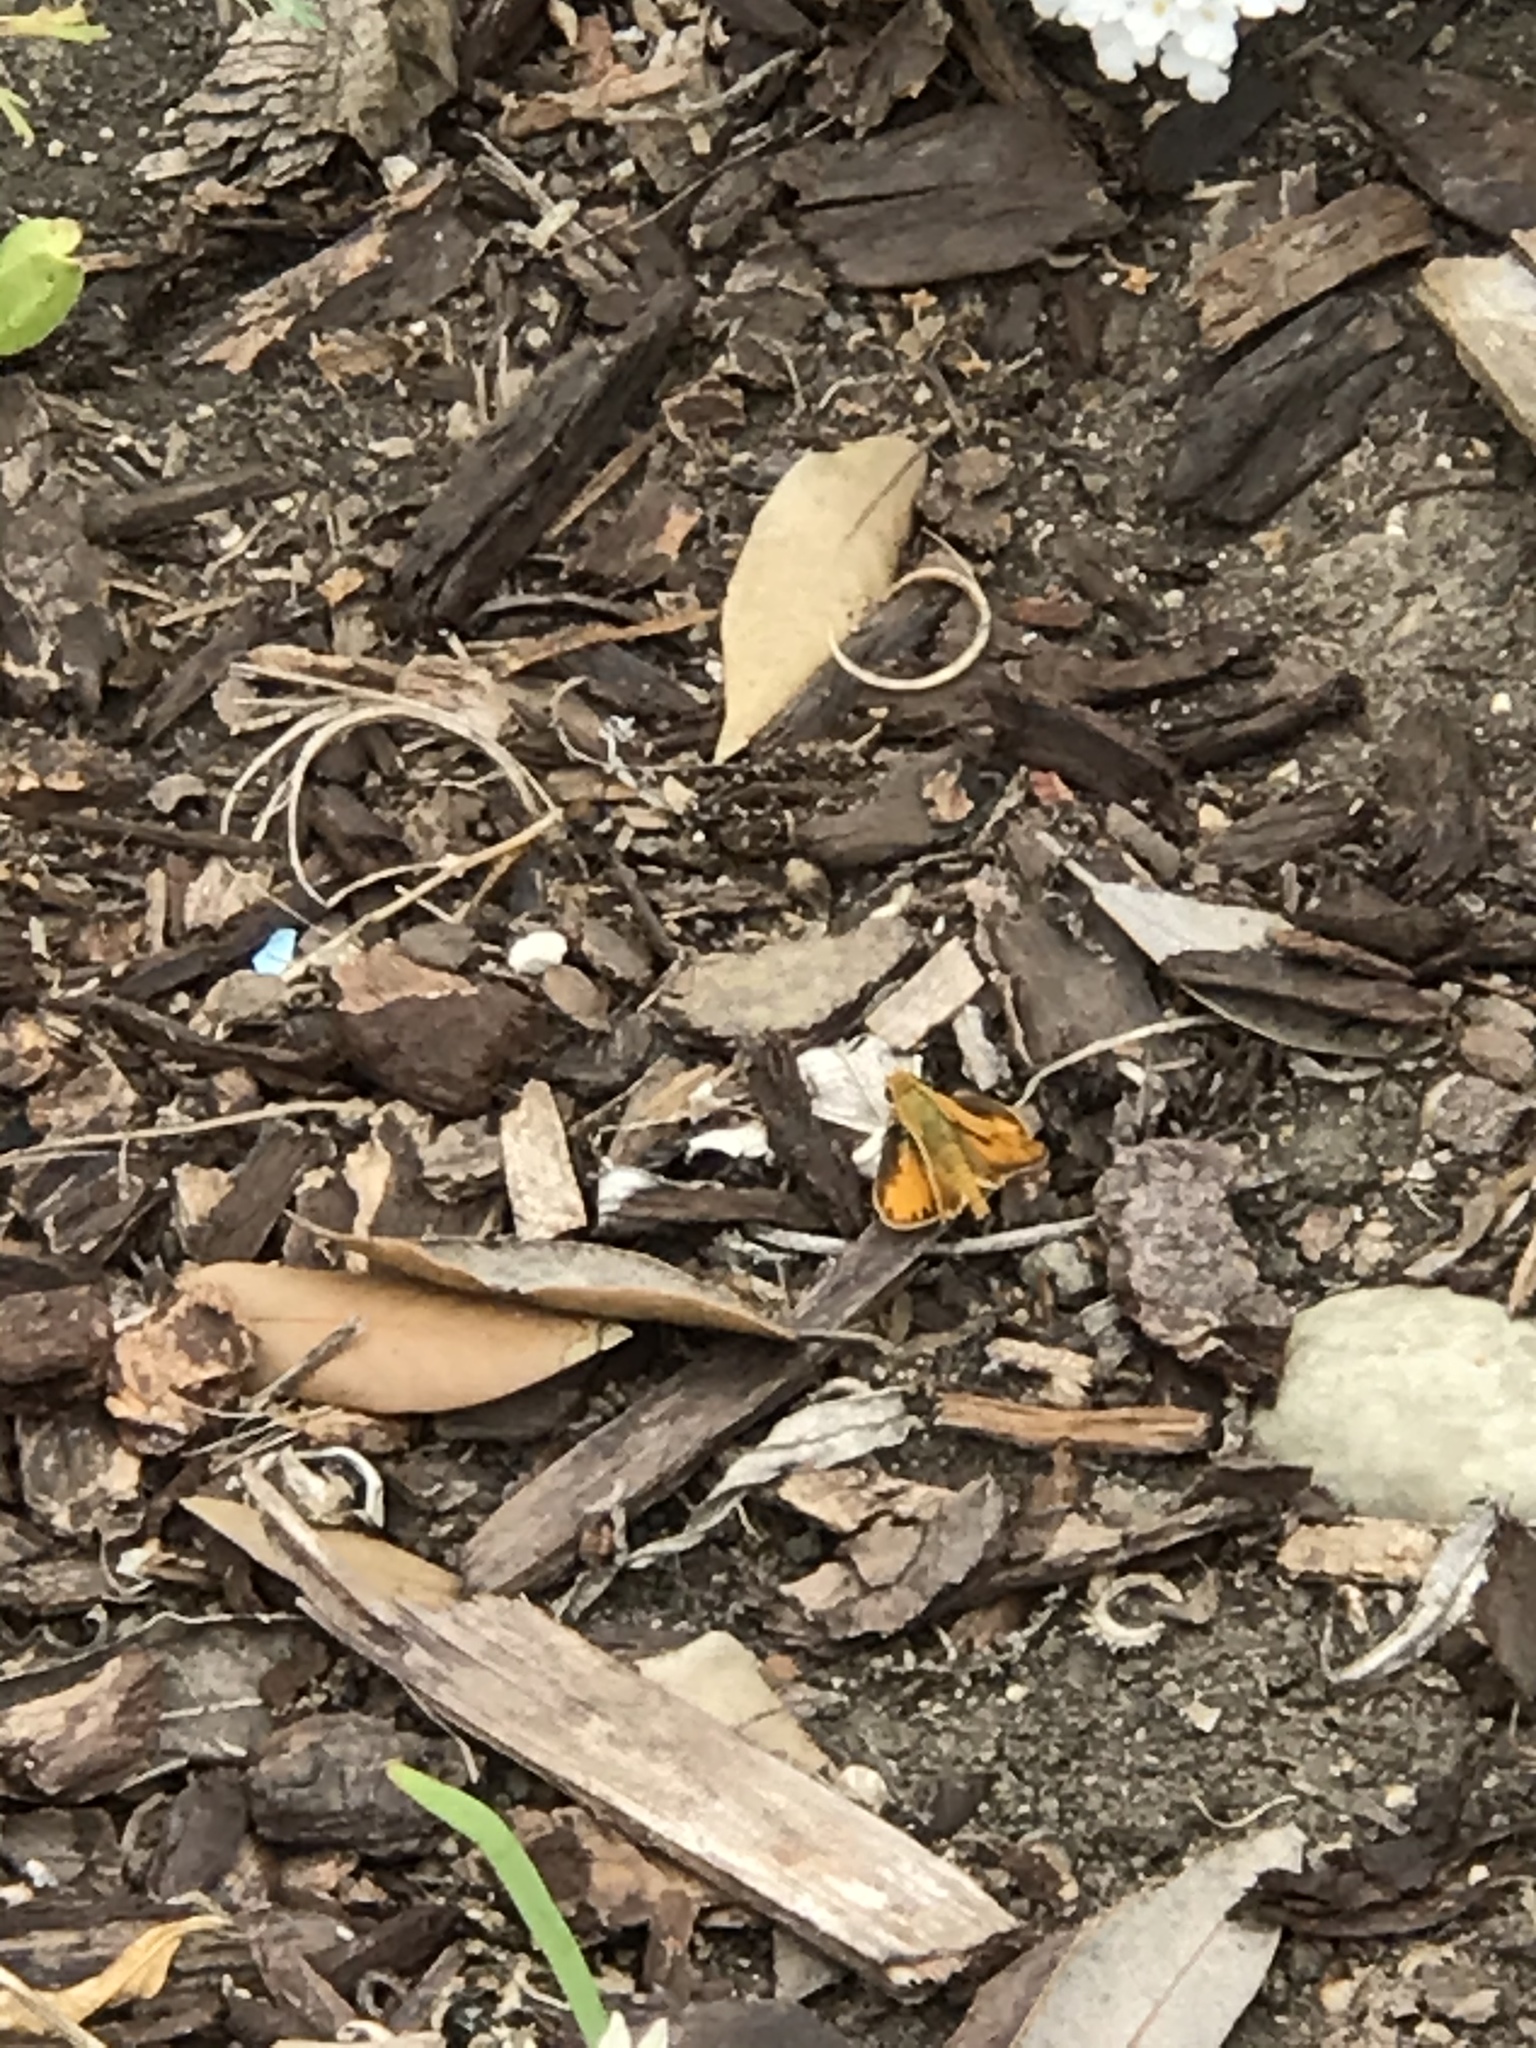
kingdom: Animalia
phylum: Arthropoda
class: Insecta
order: Lepidoptera
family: Hesperiidae
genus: Hylephila
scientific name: Hylephila phyleus
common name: Fiery skipper
